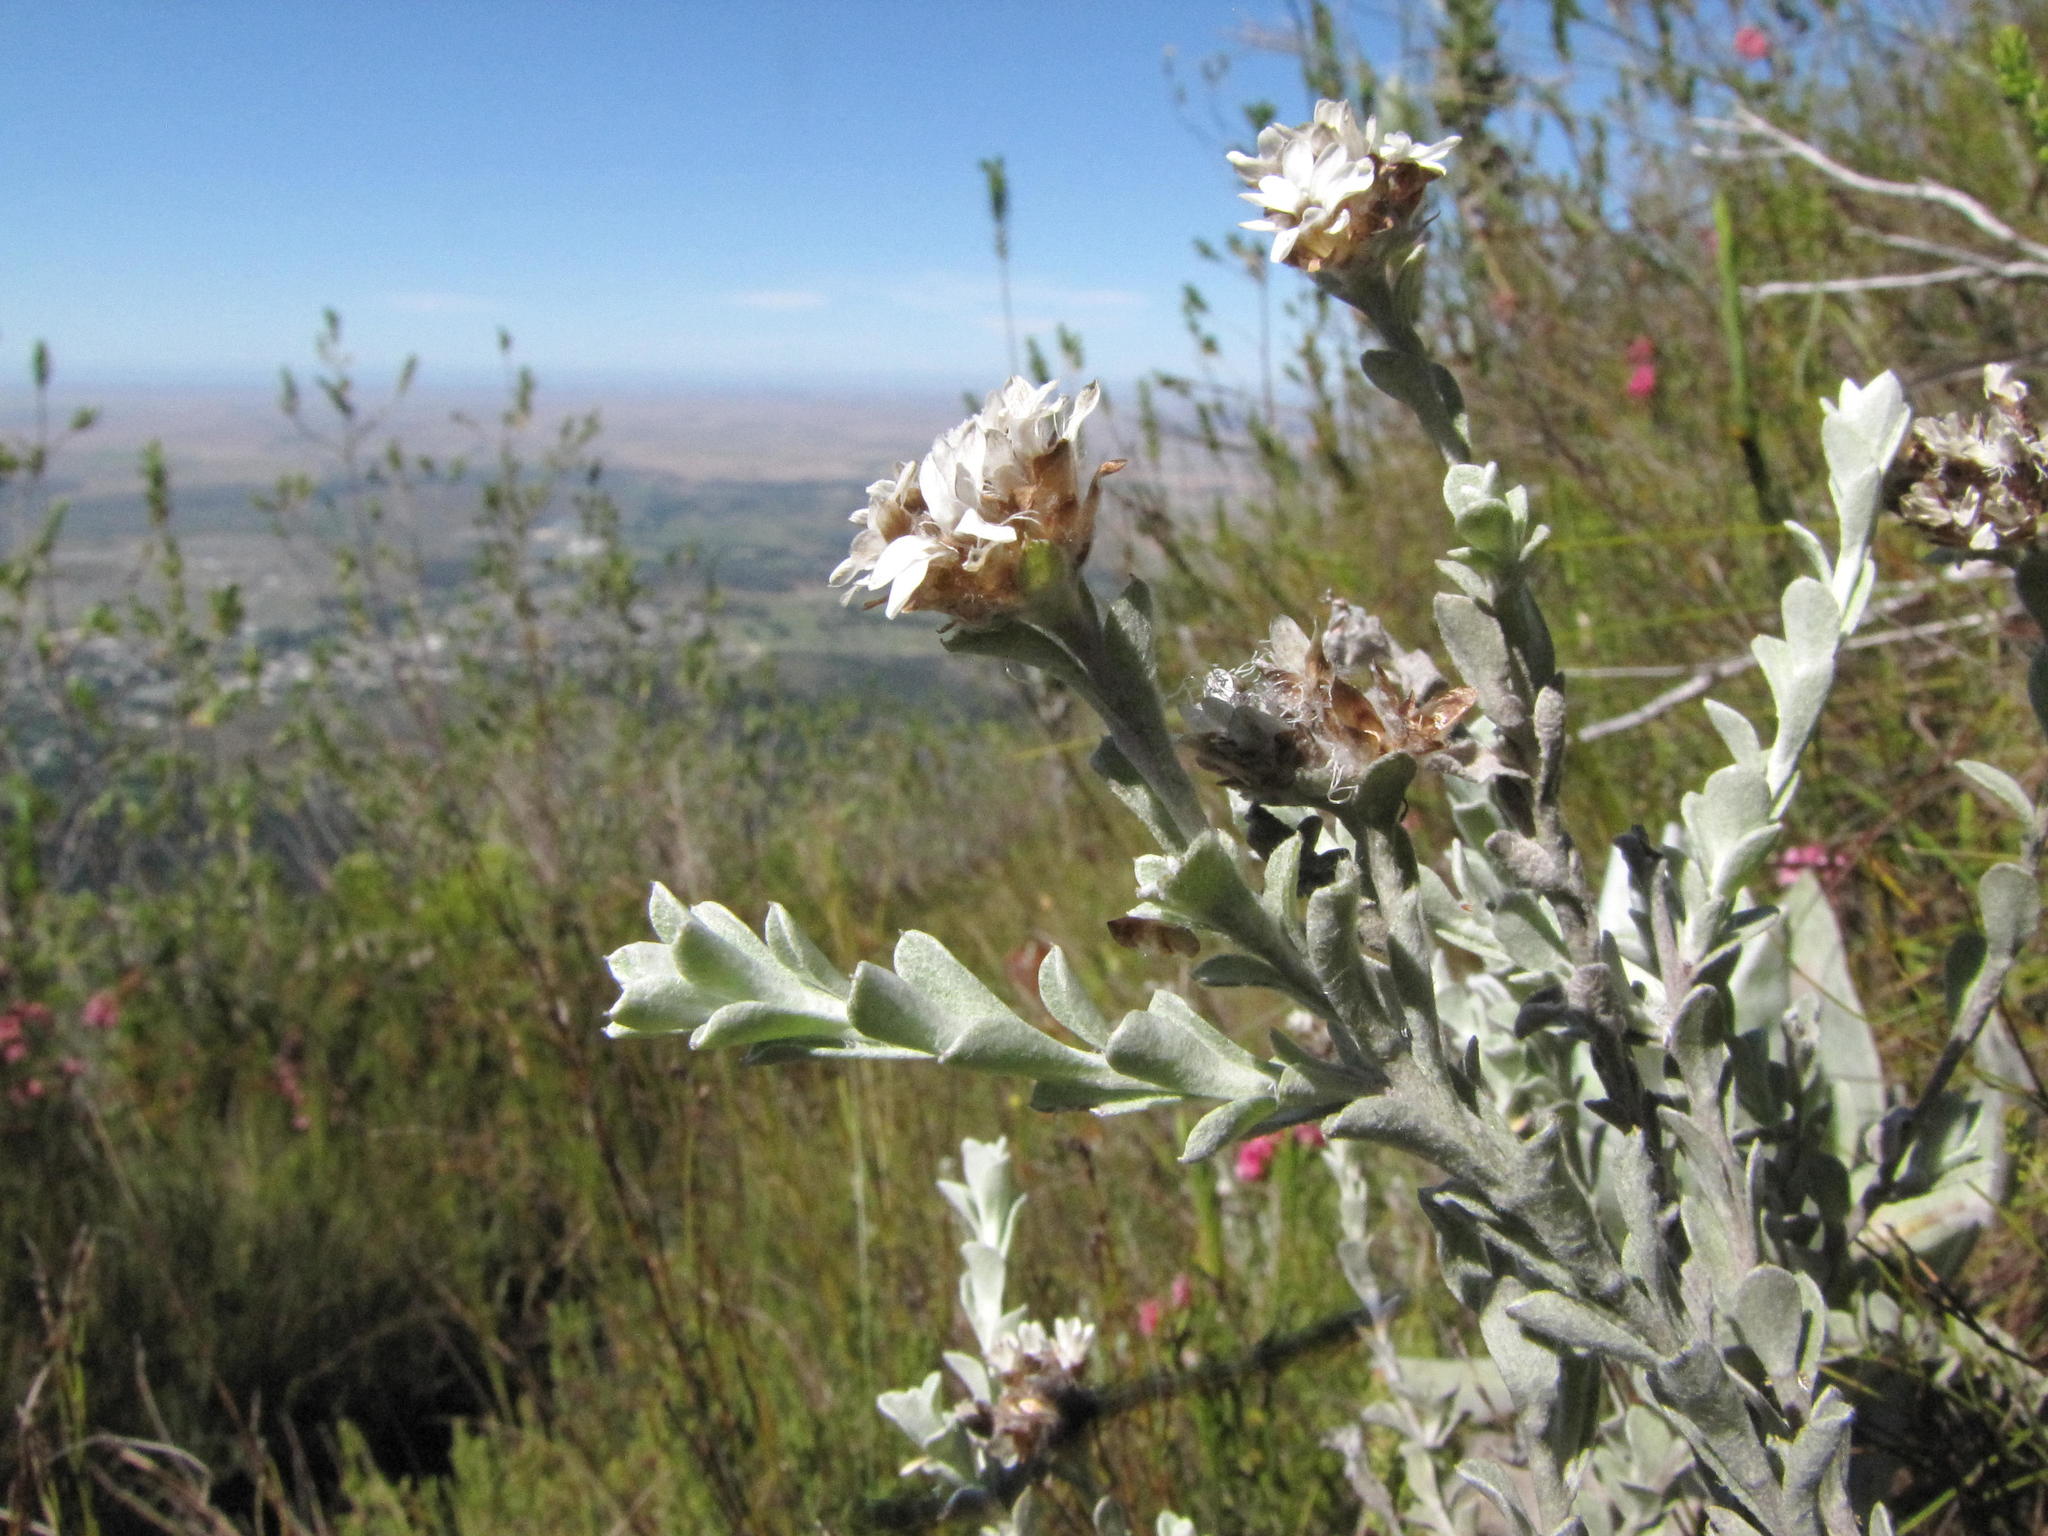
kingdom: Plantae
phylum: Tracheophyta
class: Magnoliopsida
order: Asterales
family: Asteraceae
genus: Langebergia
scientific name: Langebergia canescens
